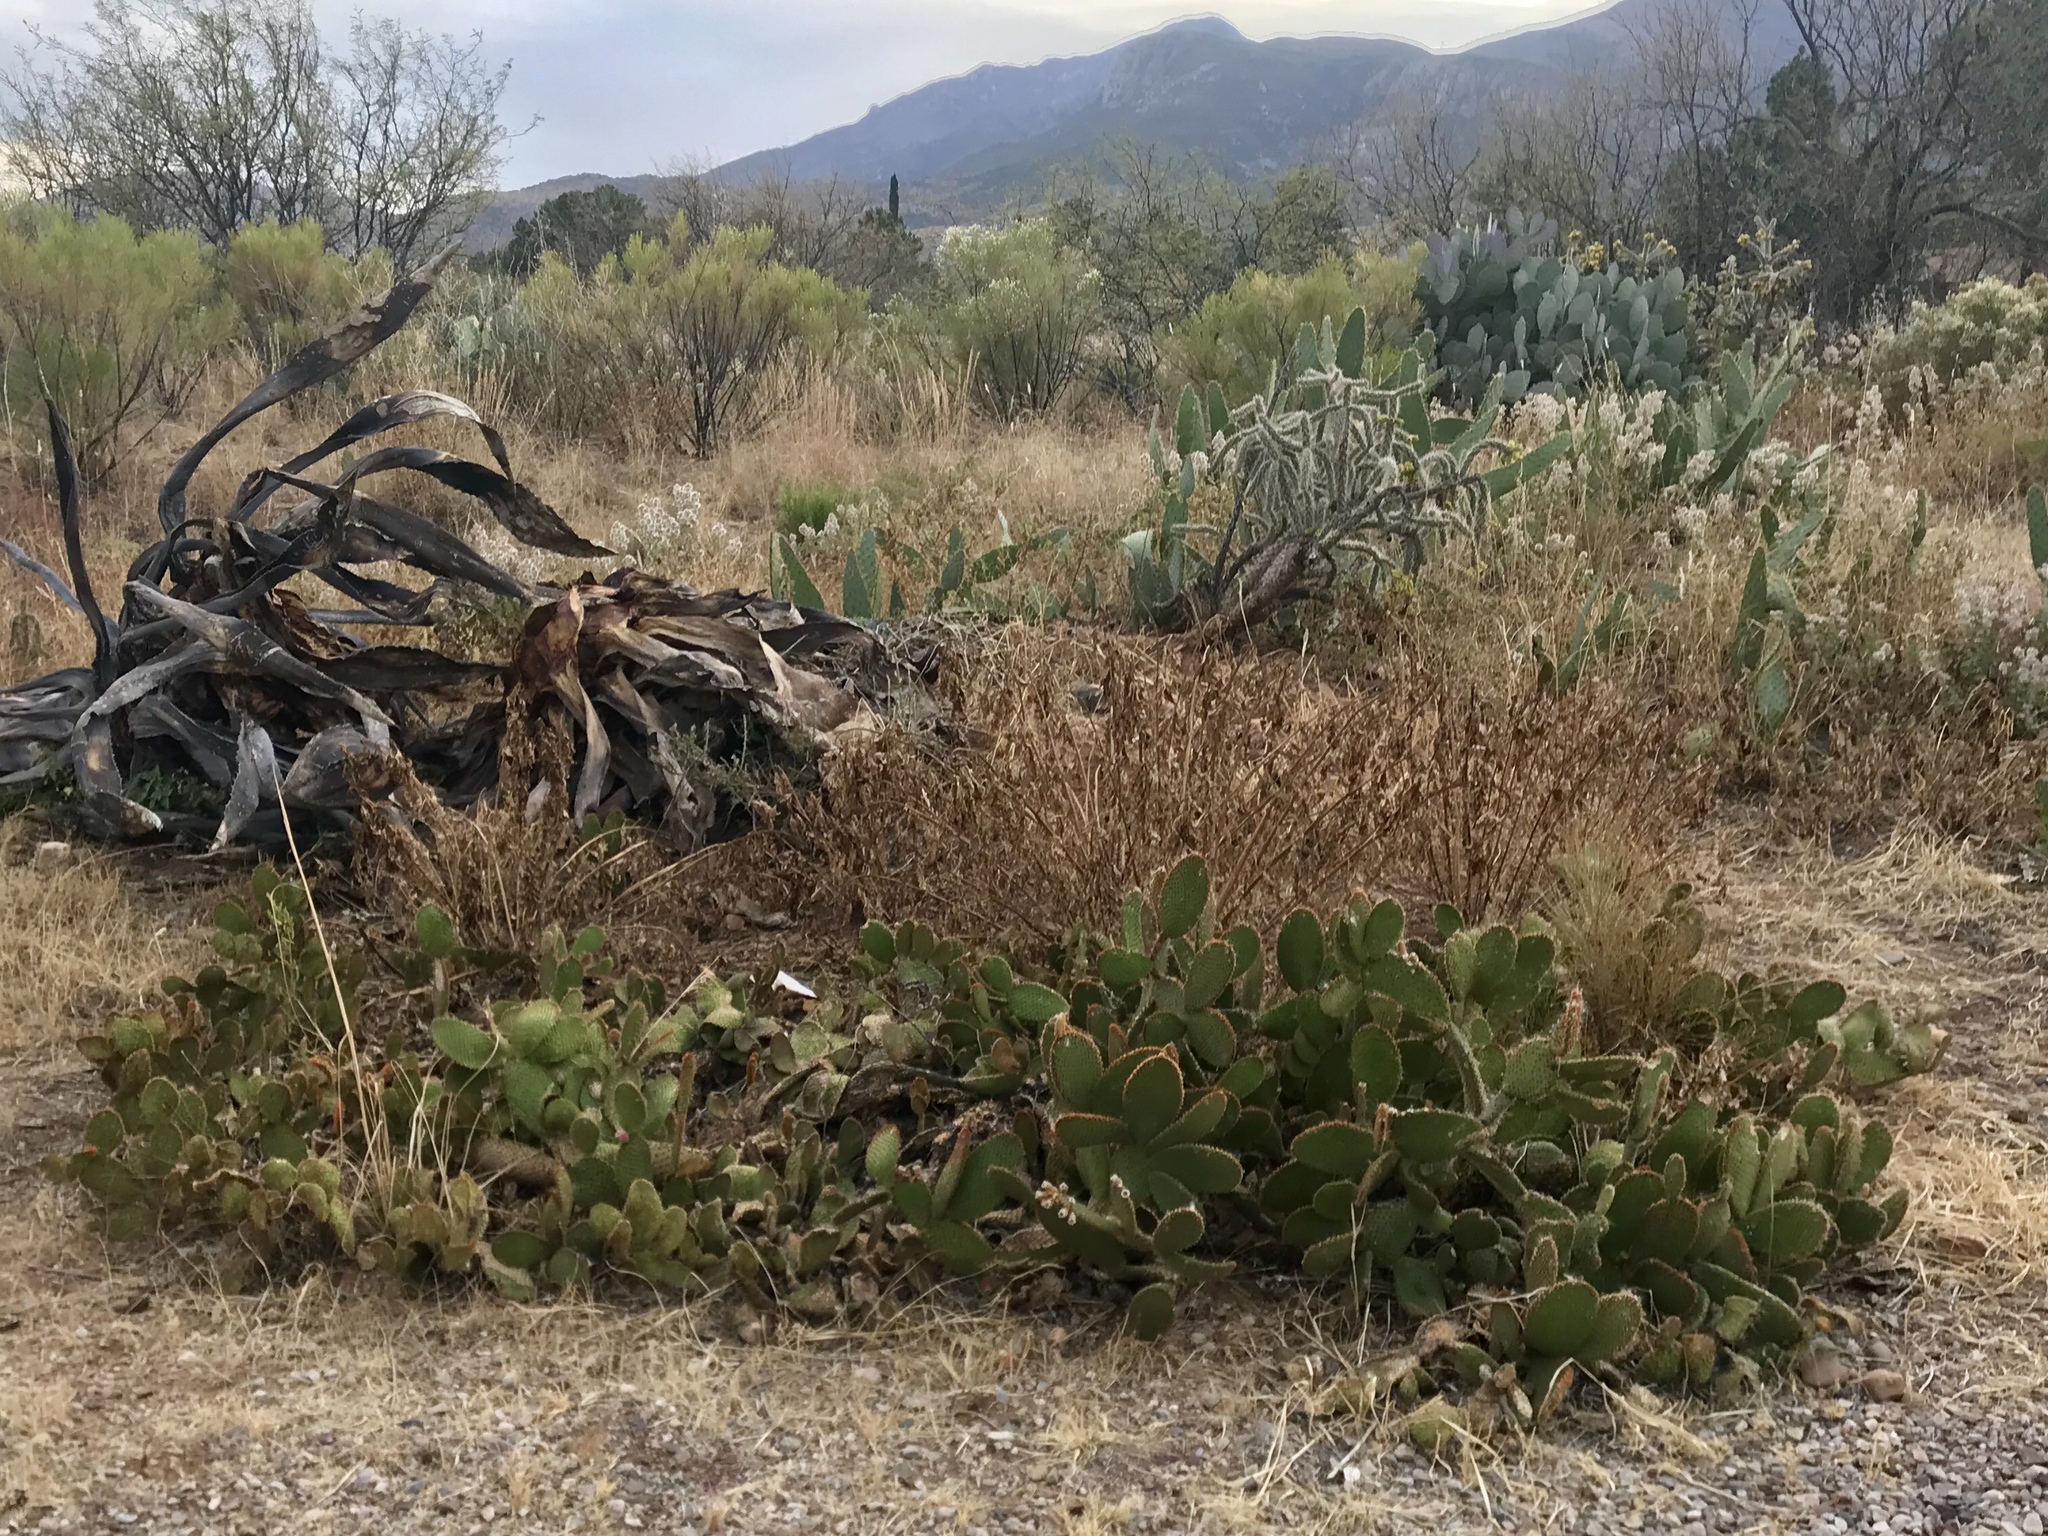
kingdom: Plantae
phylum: Tracheophyta
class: Magnoliopsida
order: Caryophyllales
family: Cactaceae
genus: Opuntia
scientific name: Opuntia microdasys
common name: Angel's-wings
